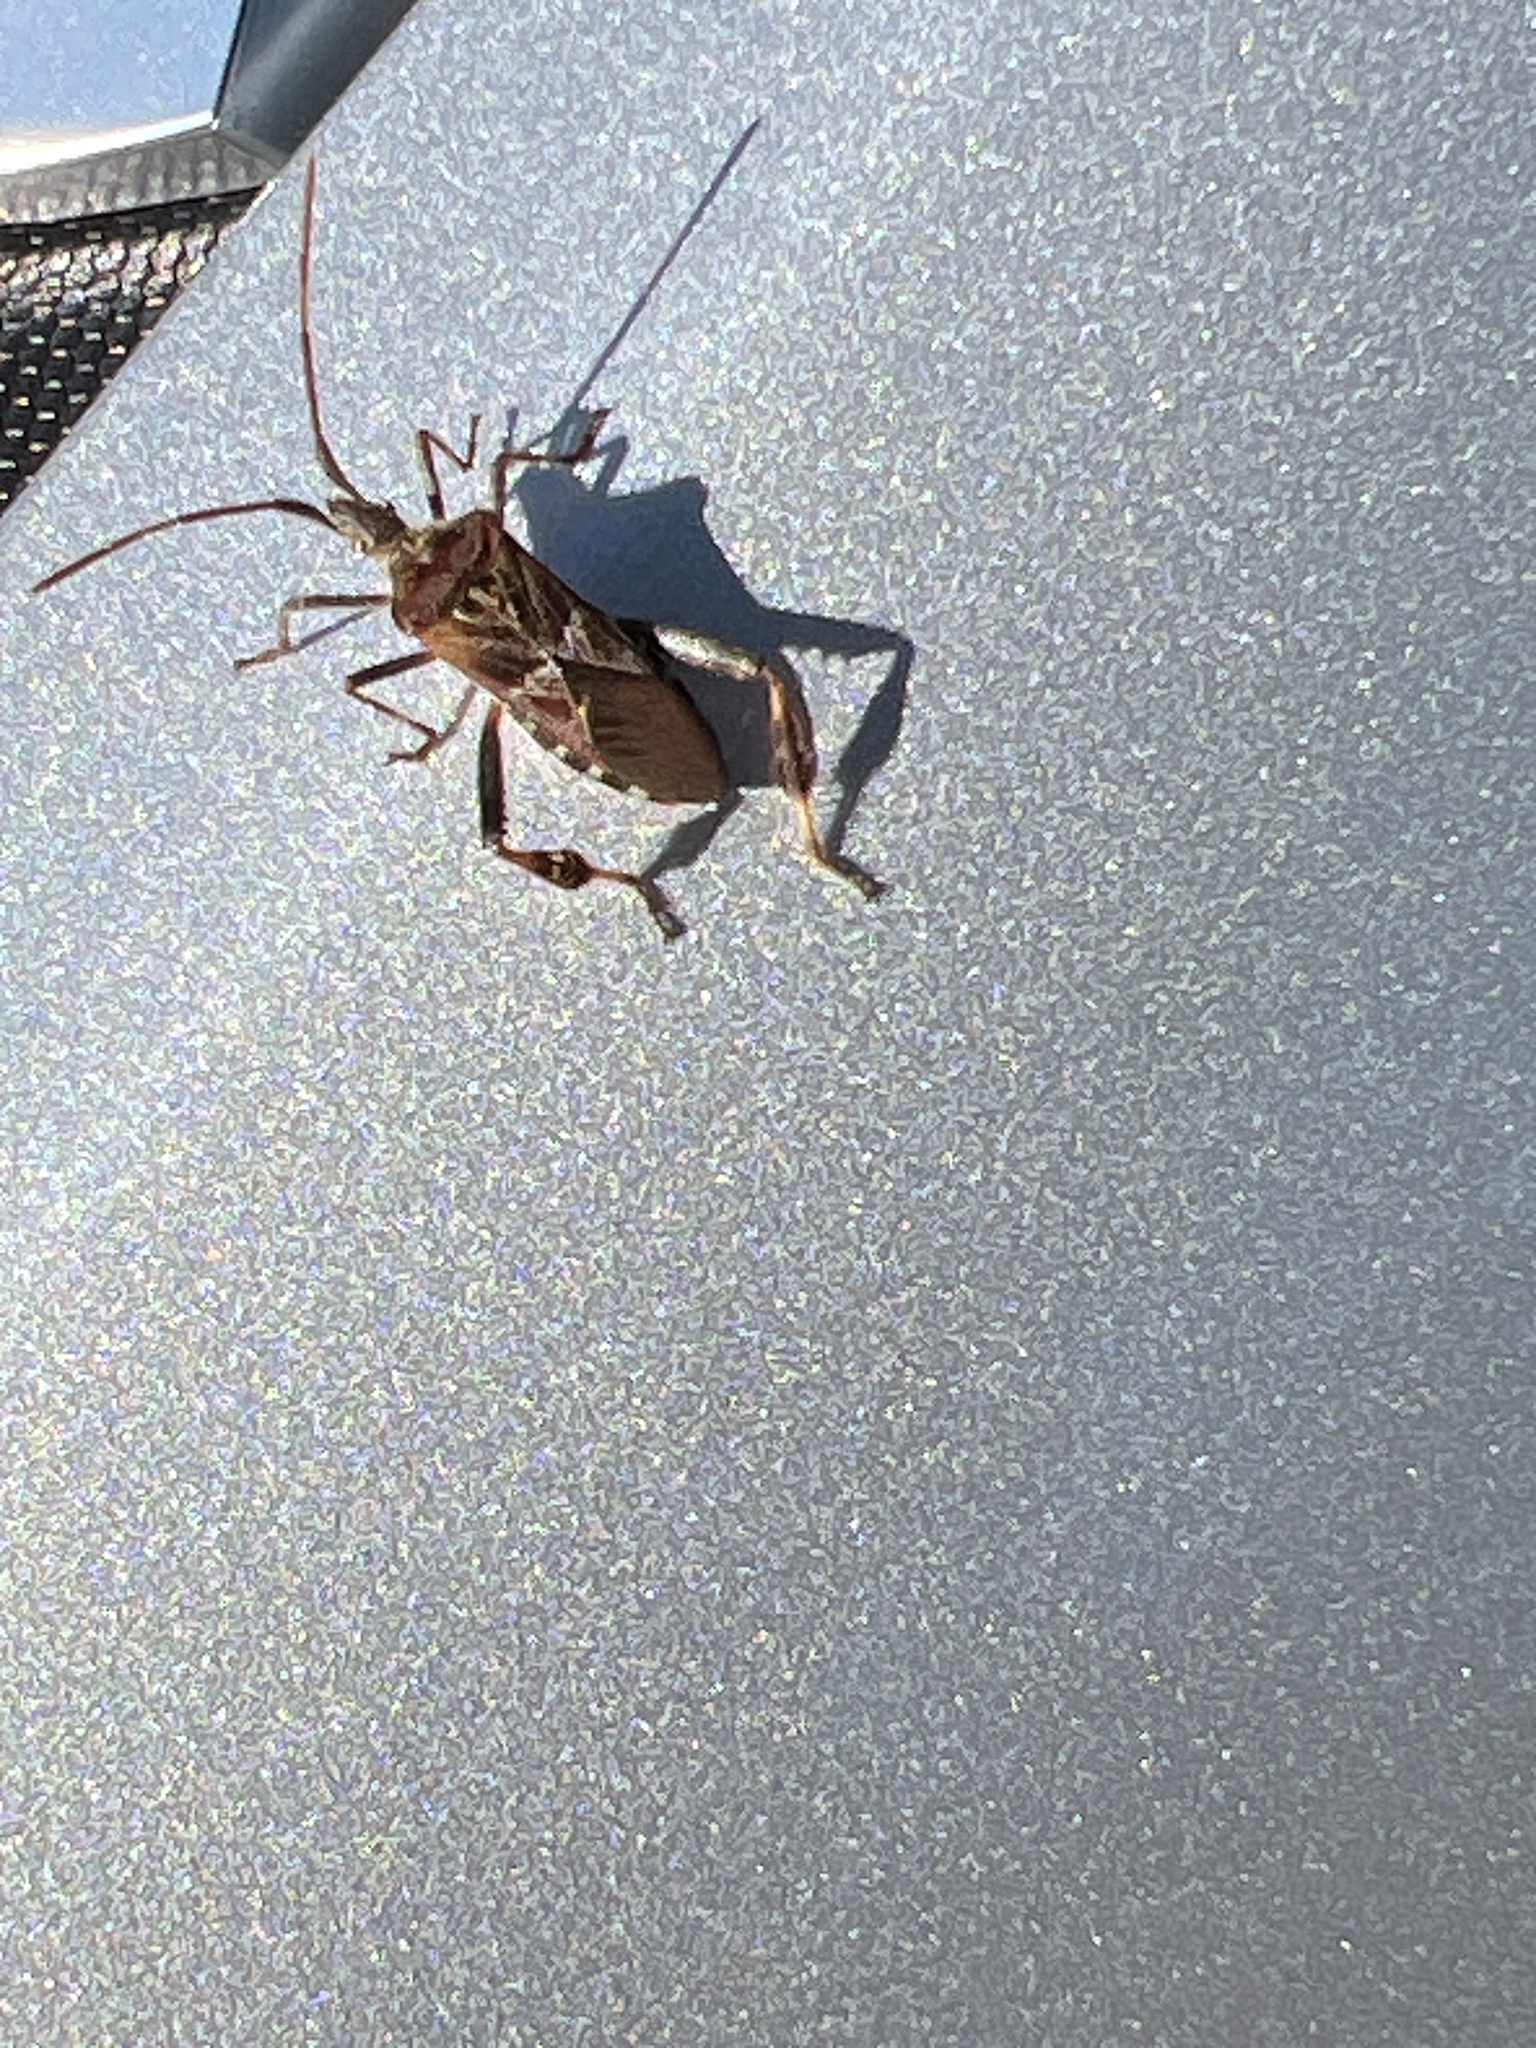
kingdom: Animalia
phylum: Arthropoda
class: Insecta
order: Hemiptera
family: Coreidae
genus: Leptoglossus
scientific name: Leptoglossus occidentalis
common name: Western conifer-seed bug
